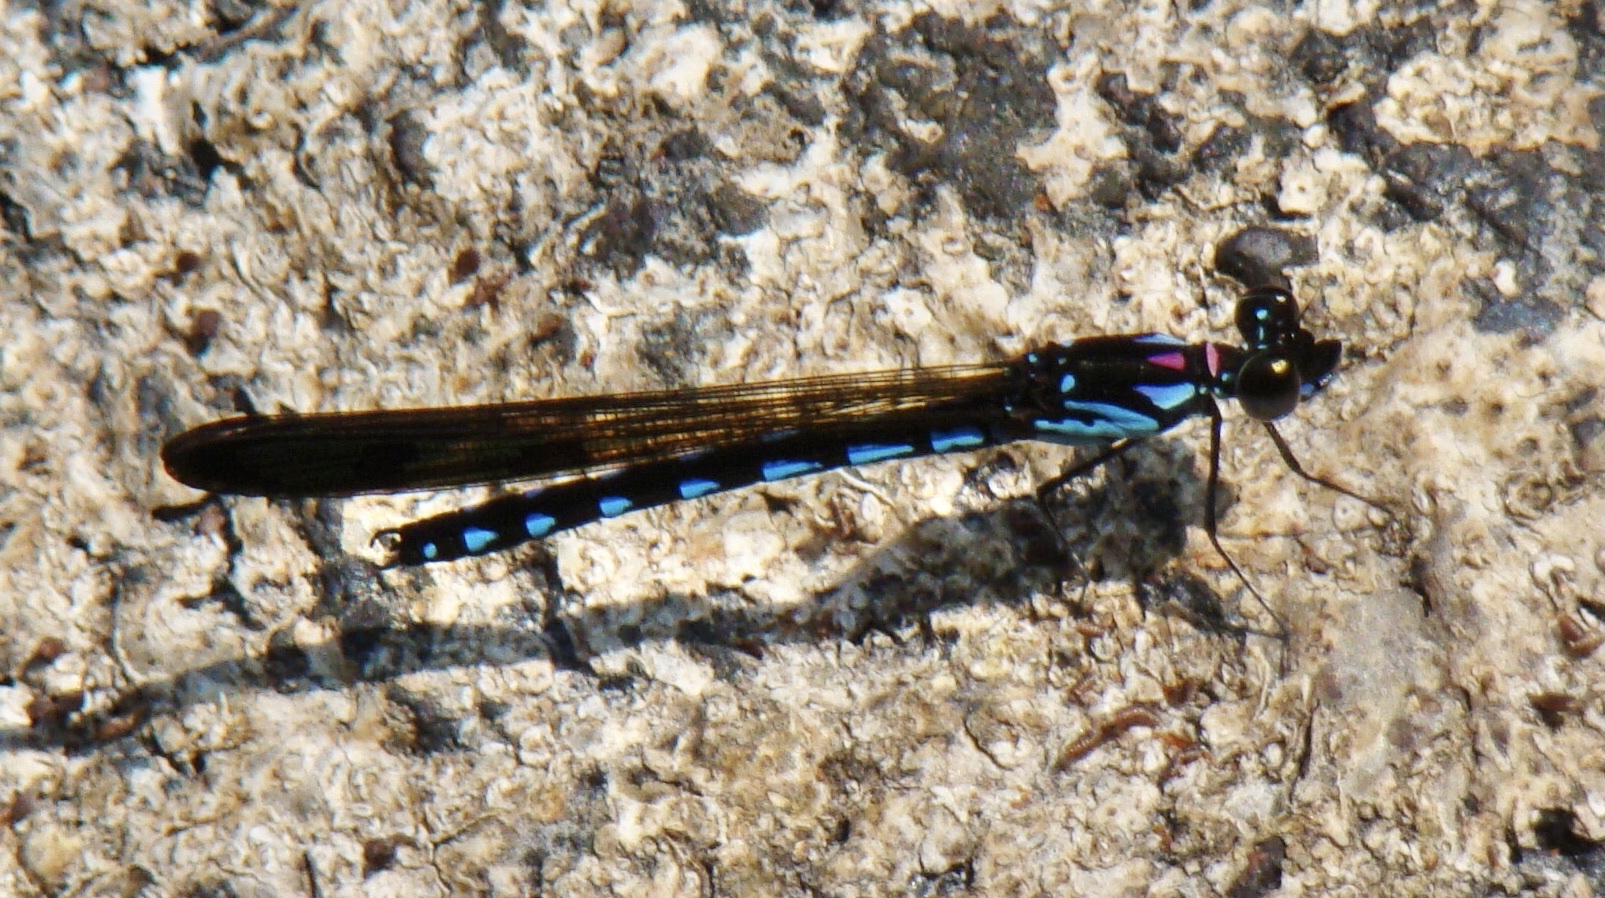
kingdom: Animalia
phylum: Arthropoda
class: Insecta
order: Odonata
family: Chlorocyphidae
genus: Heliocypha
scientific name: Heliocypha perforata
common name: Common blue jewel
